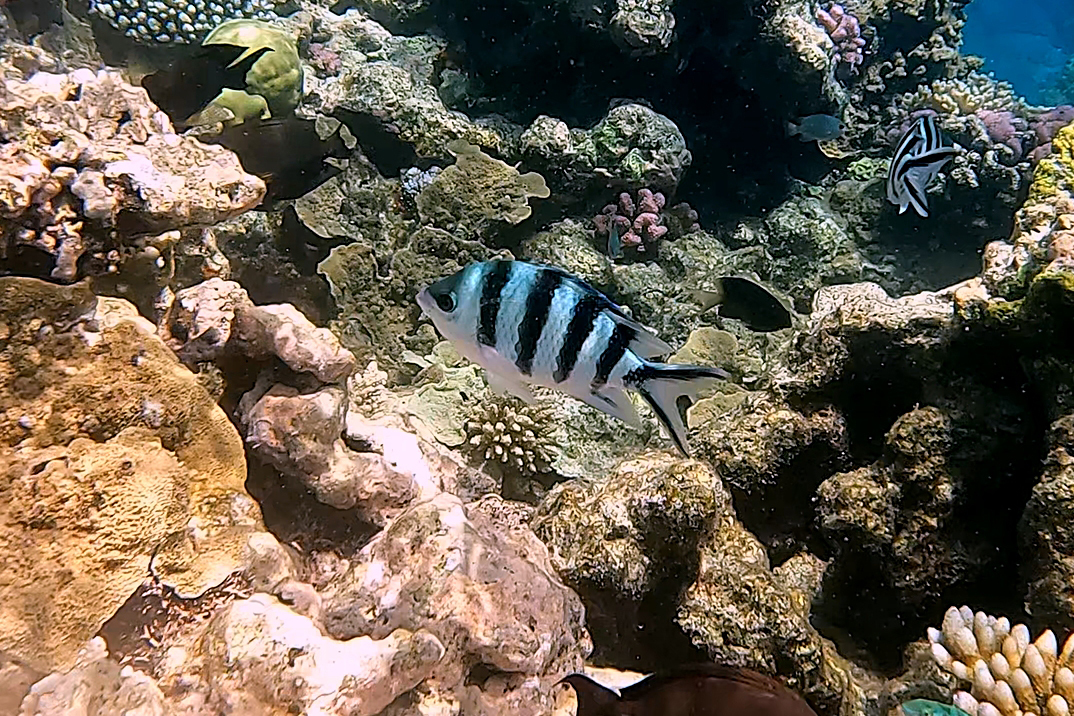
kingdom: Animalia
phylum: Chordata
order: Perciformes
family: Pomacentridae
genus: Abudefduf
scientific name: Abudefduf sexfasciatus
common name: Scissortail sergeant
